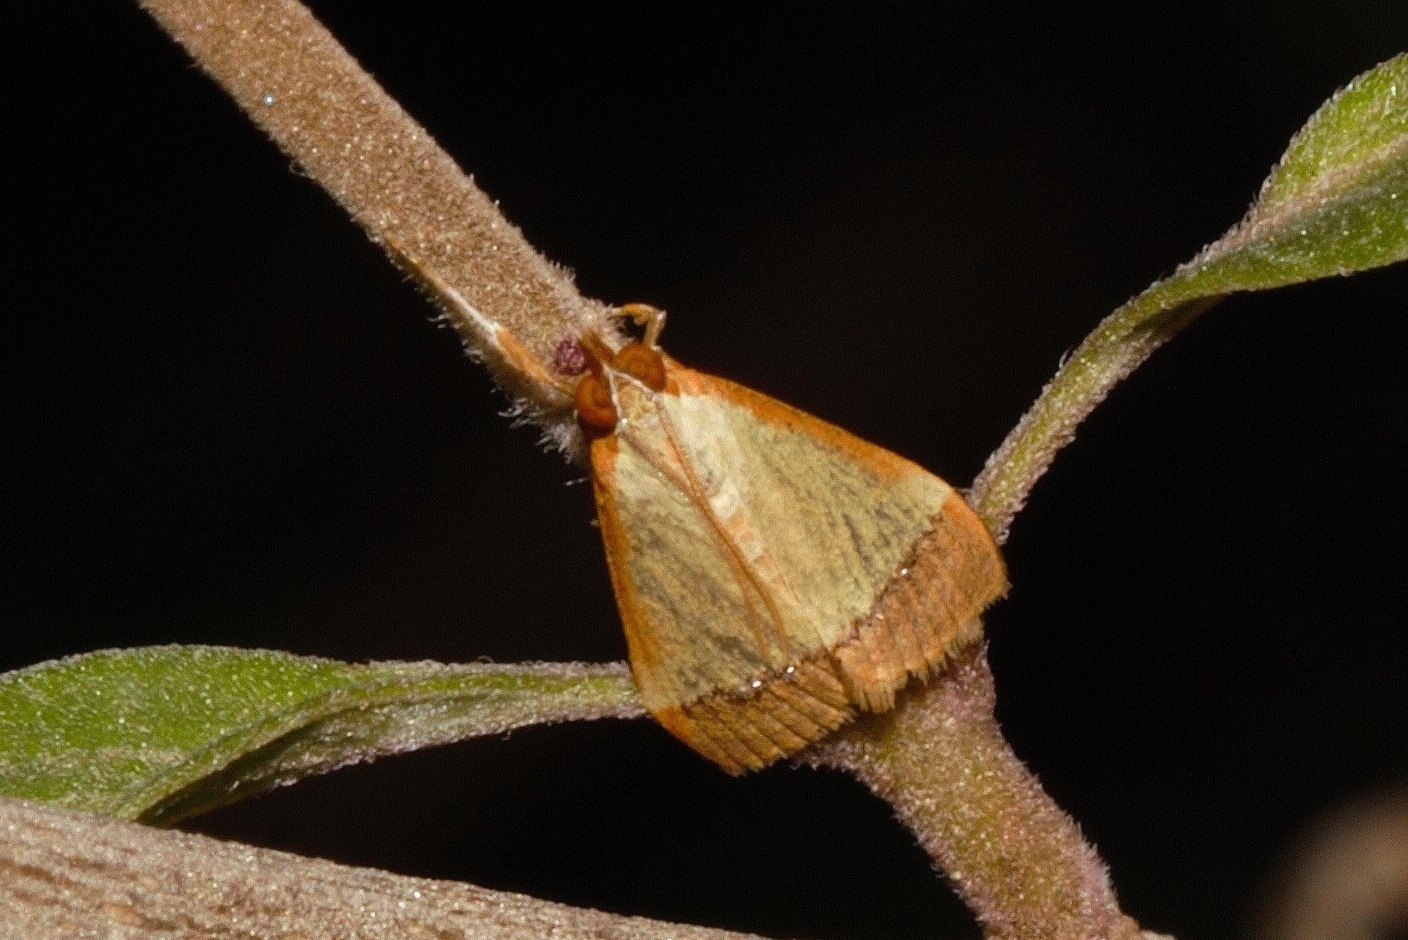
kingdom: Animalia
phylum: Arthropoda
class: Insecta
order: Lepidoptera
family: Crambidae
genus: Autocharis
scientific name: Autocharis fessalis
